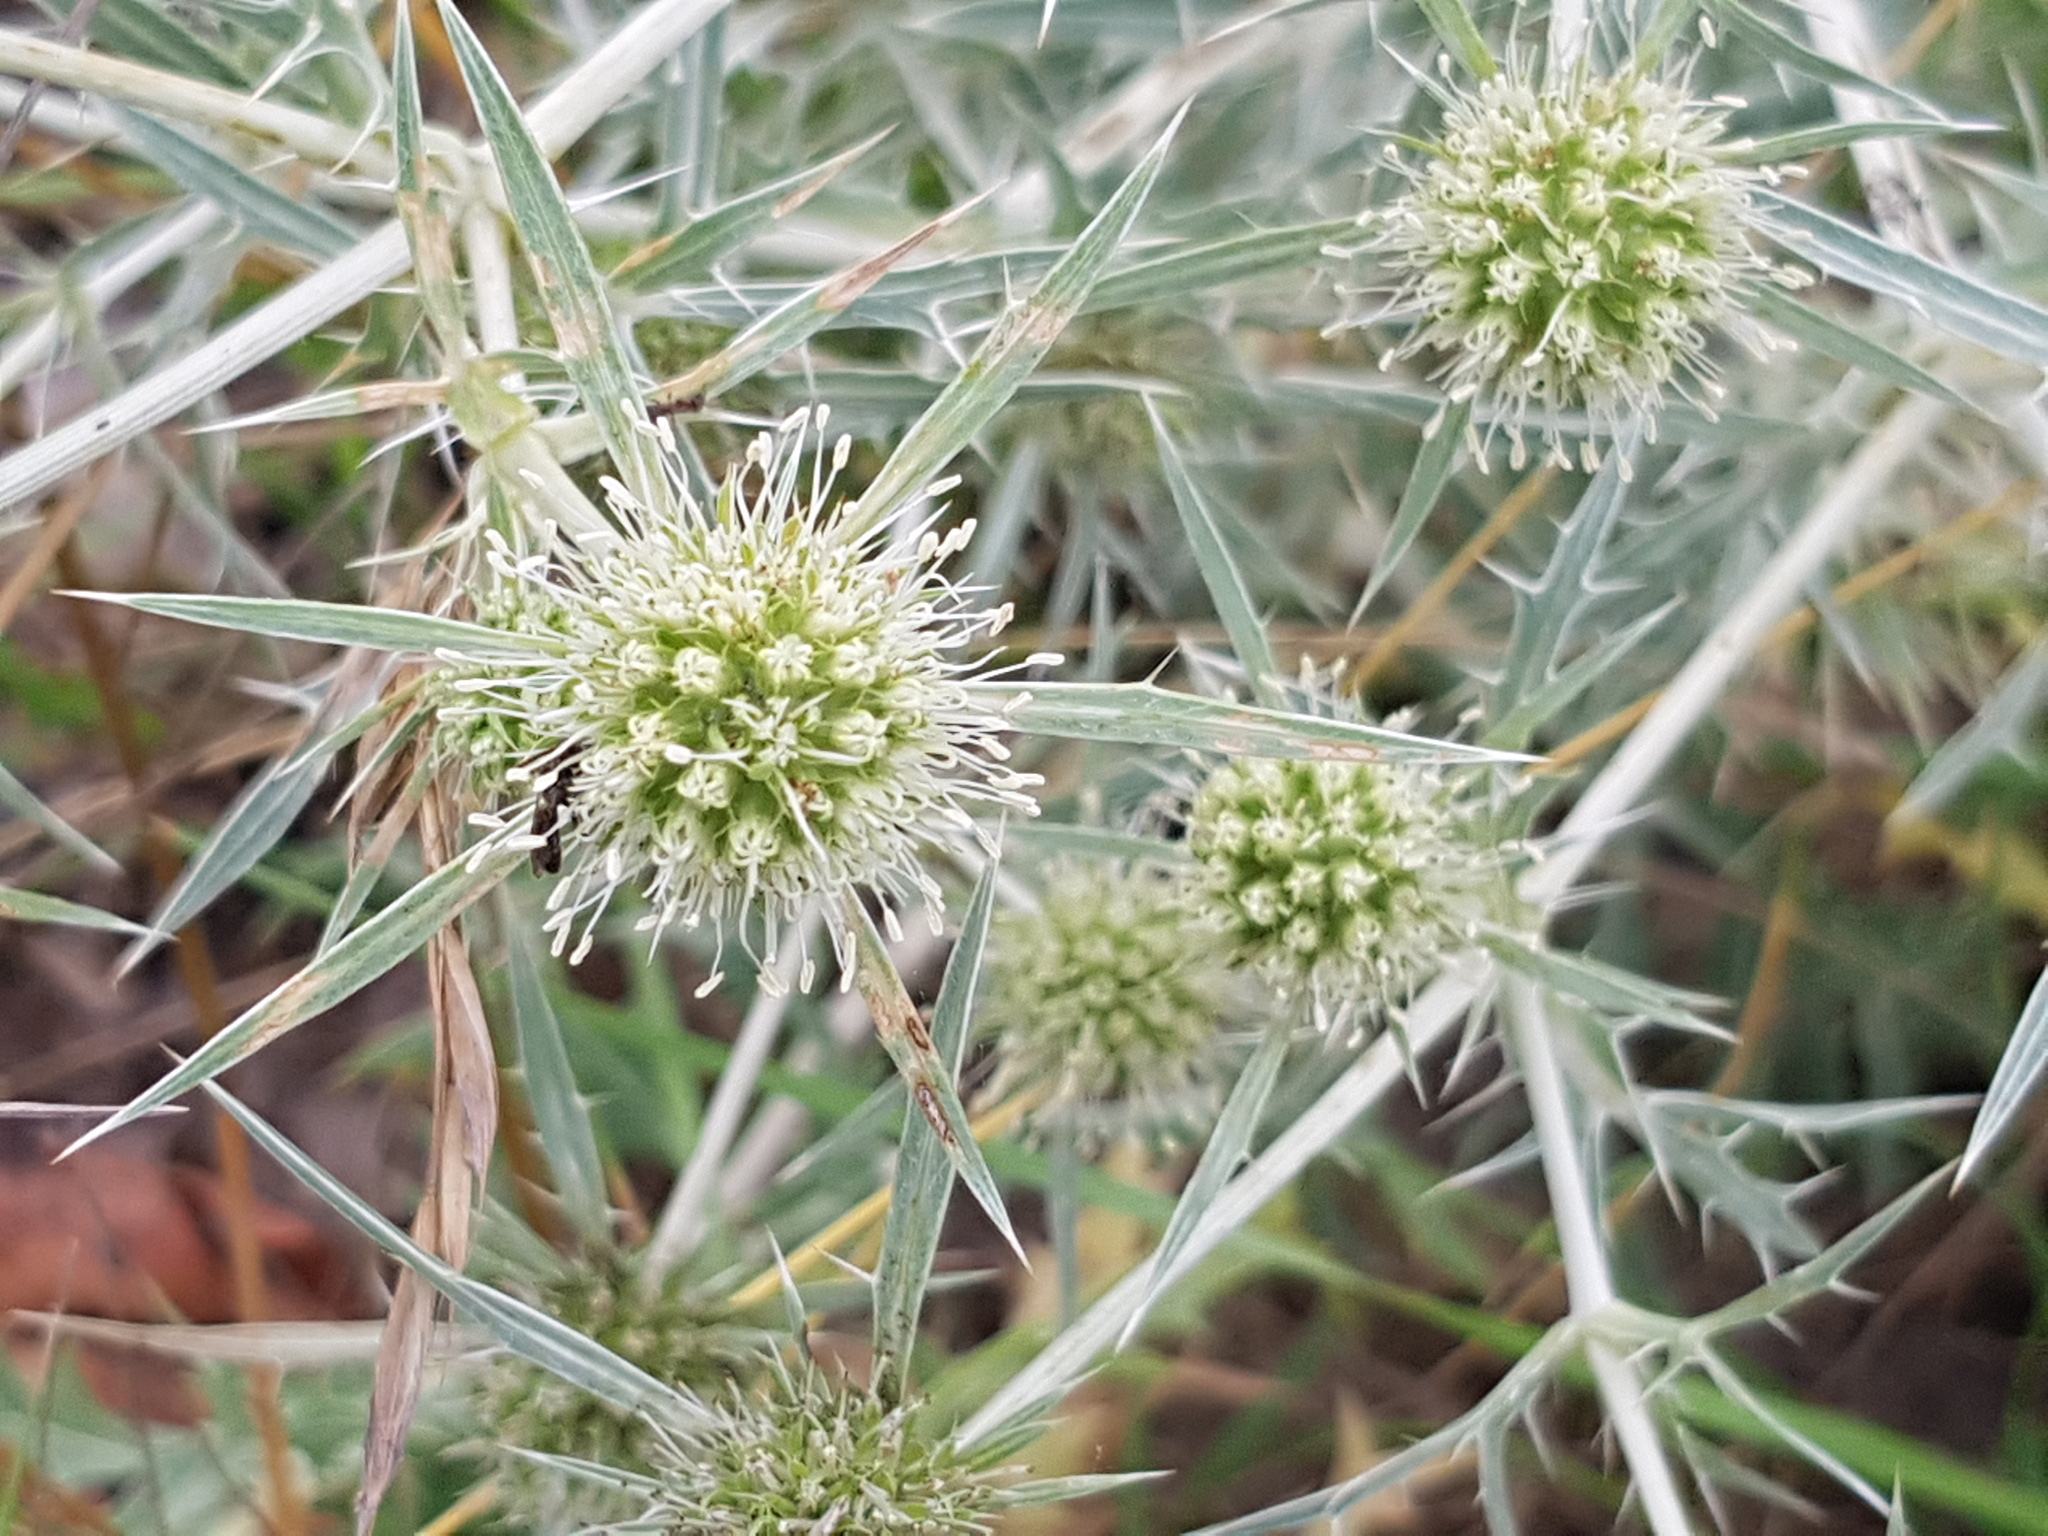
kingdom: Plantae
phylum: Tracheophyta
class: Magnoliopsida
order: Apiales
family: Apiaceae
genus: Eryngium
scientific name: Eryngium campestre
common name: Field eryngo
